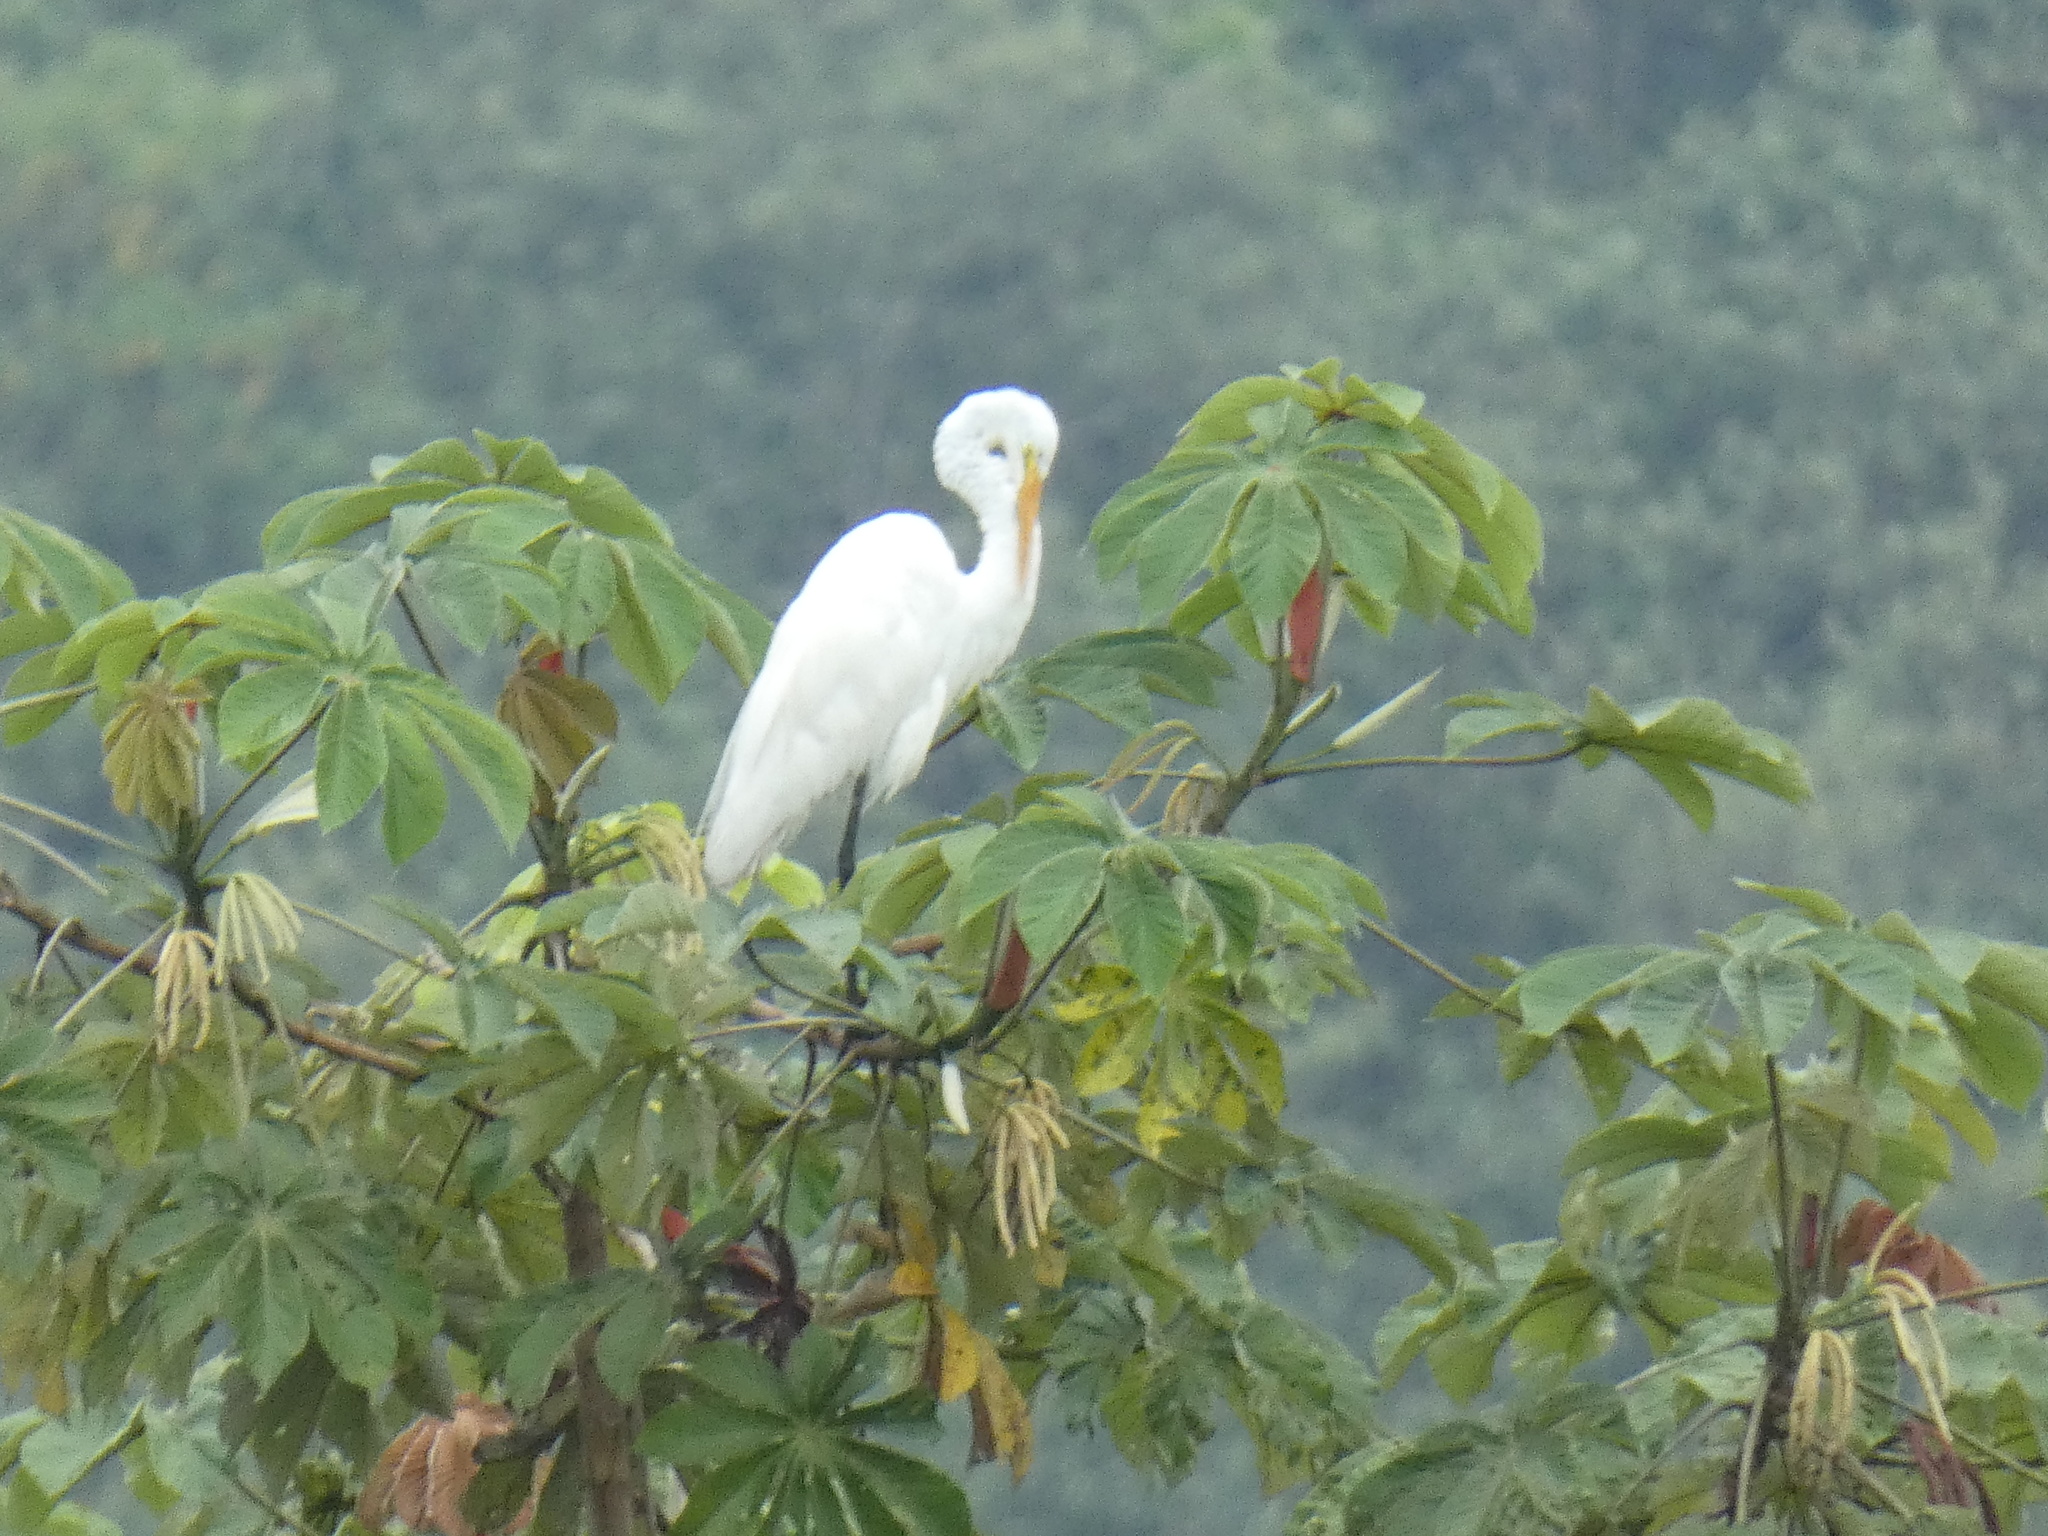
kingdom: Animalia
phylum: Chordata
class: Aves
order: Pelecaniformes
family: Ardeidae
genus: Ardea
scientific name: Ardea alba
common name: Great egret
